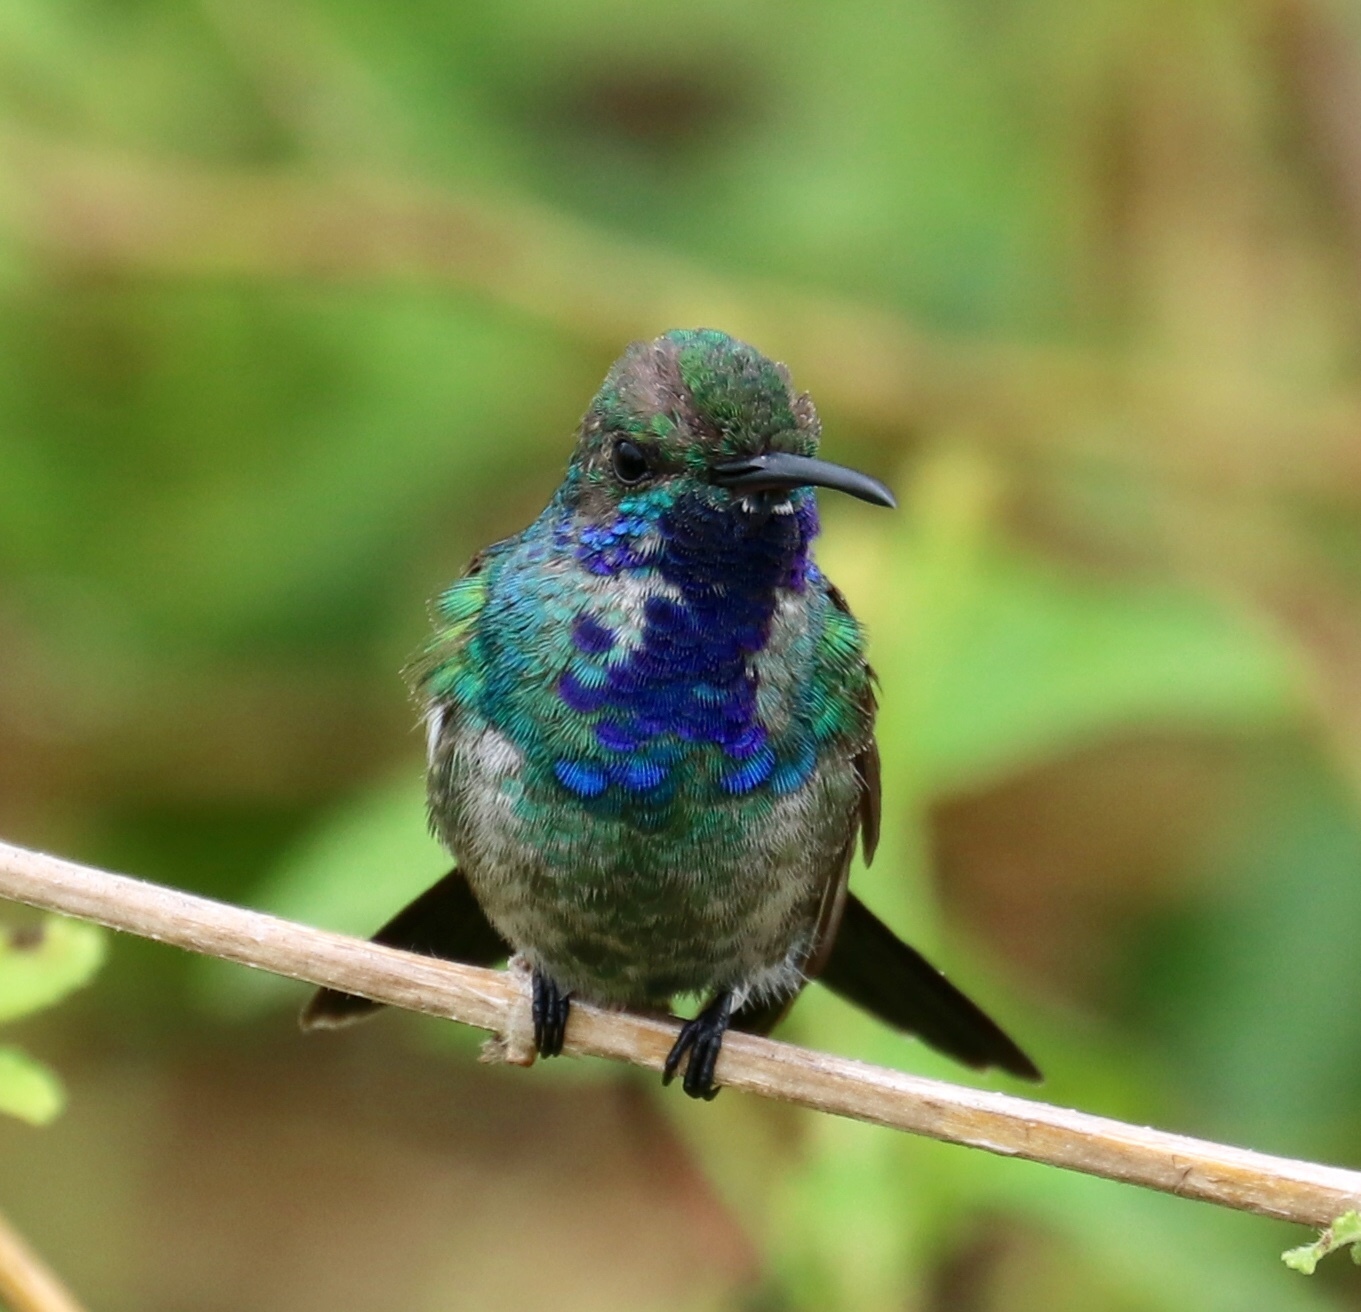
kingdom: Animalia
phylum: Chordata
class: Aves
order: Apodiformes
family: Trochilidae
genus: Chrysuronia
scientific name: Chrysuronia coeruleogularis
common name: Sapphire-throated hummingbird
